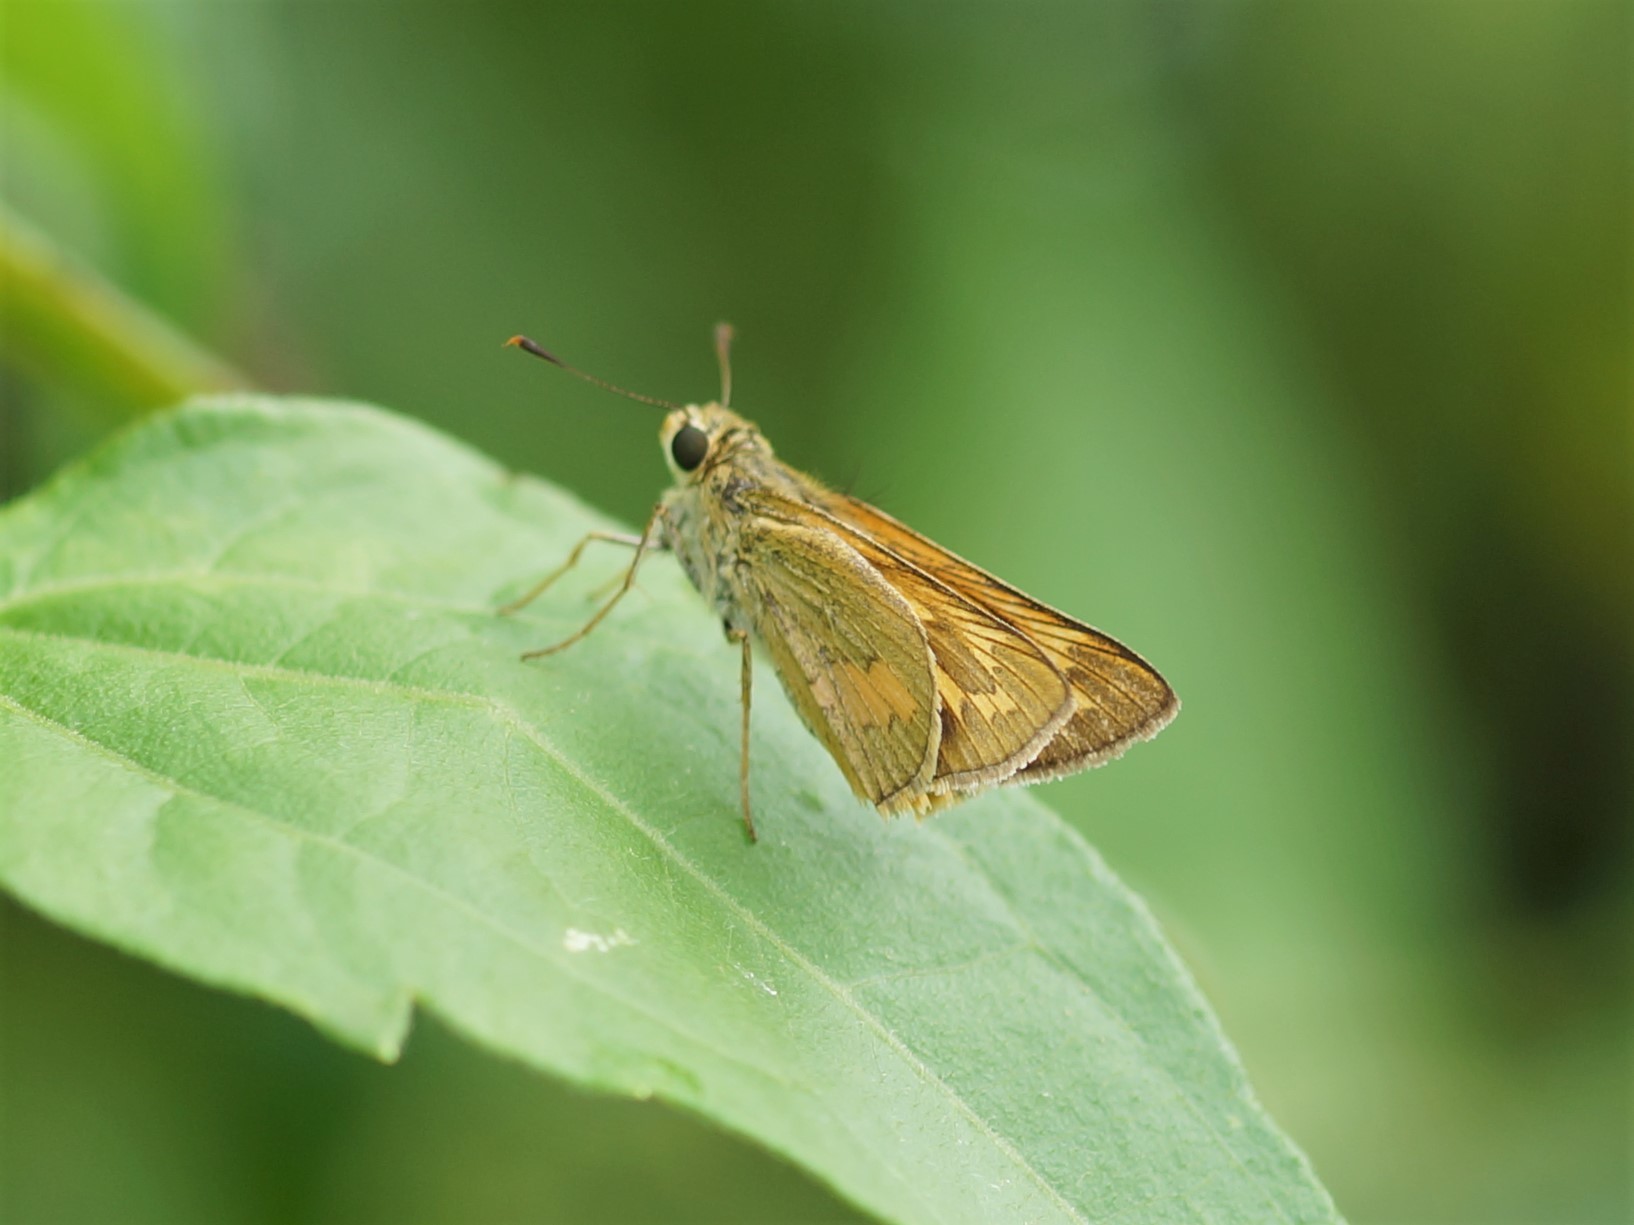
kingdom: Animalia
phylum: Arthropoda
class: Insecta
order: Lepidoptera
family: Hesperiidae
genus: Telicota
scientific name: Telicota colon
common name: Pale palm dart
